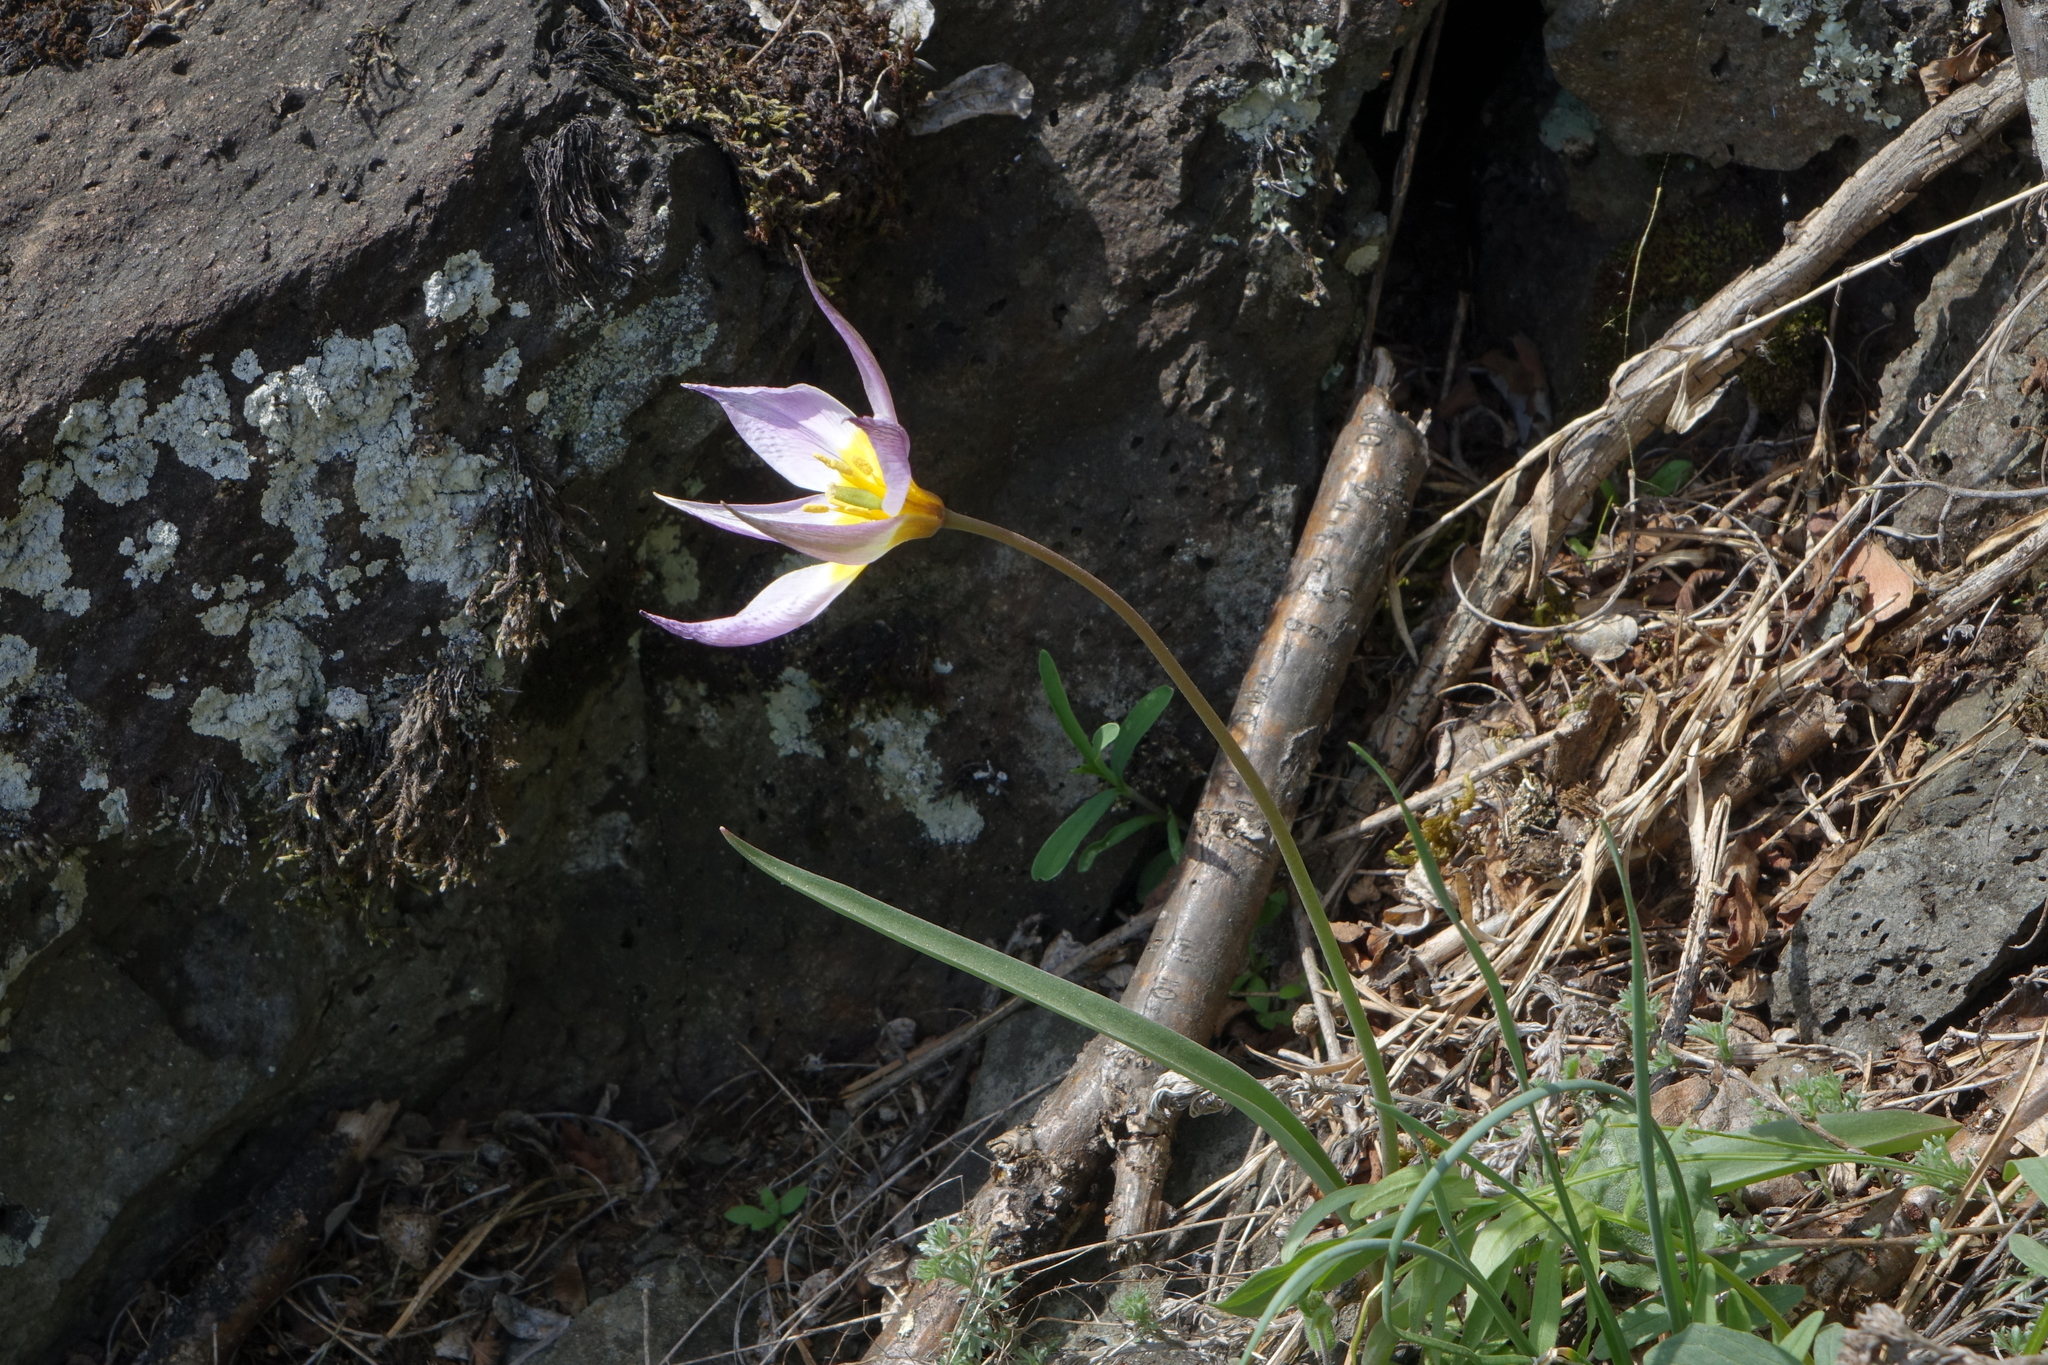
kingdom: Plantae
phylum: Tracheophyta
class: Liliopsida
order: Liliales
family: Liliaceae
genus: Tulipa
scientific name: Tulipa patens
